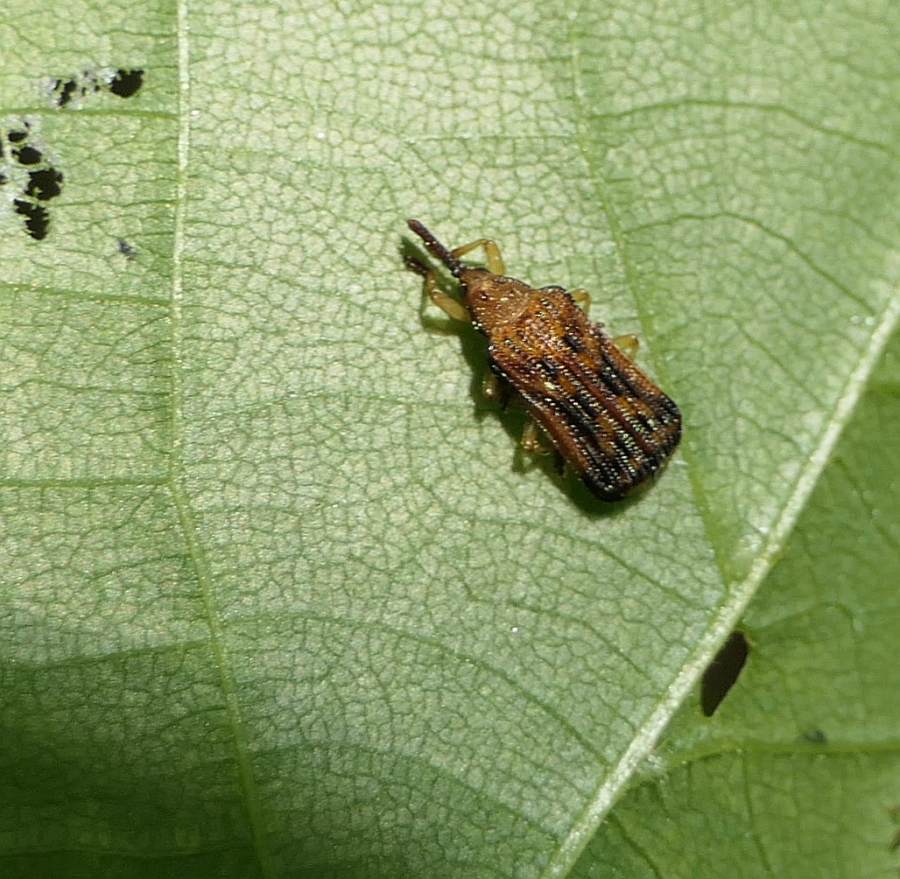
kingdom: Animalia
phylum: Arthropoda
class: Insecta
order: Coleoptera
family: Chrysomelidae
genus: Baliosus
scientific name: Baliosus nervosus
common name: Basswood leaf miner
